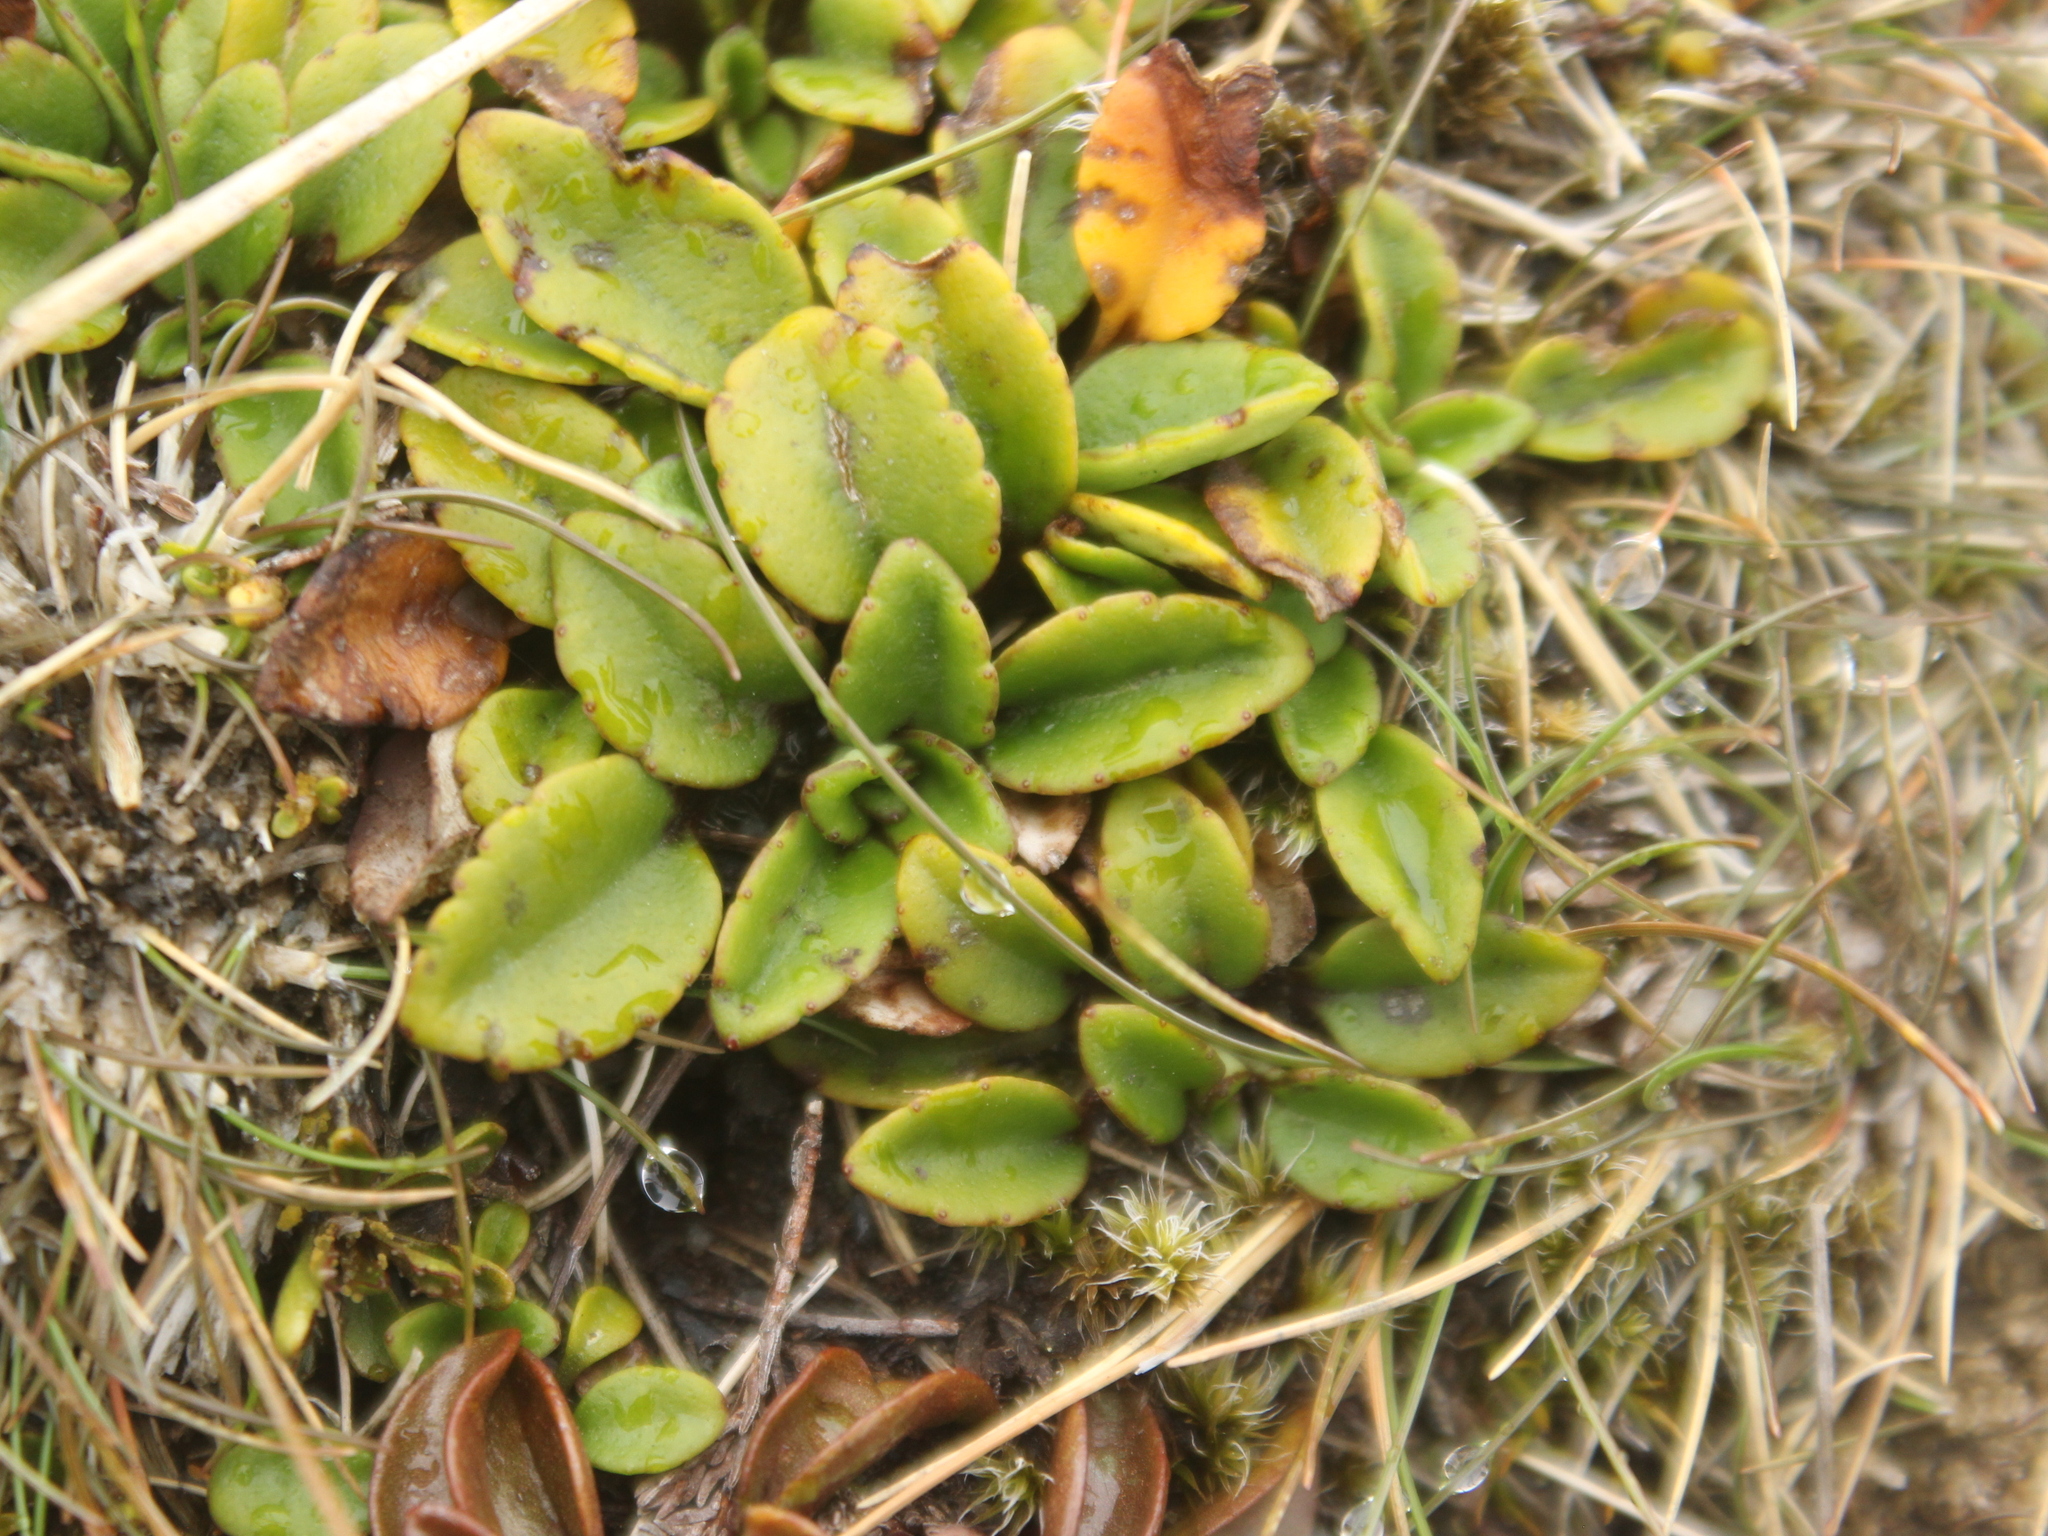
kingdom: Plantae
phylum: Tracheophyta
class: Magnoliopsida
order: Lamiales
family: Plantaginaceae
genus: Ourisia
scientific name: Ourisia vulcanica
